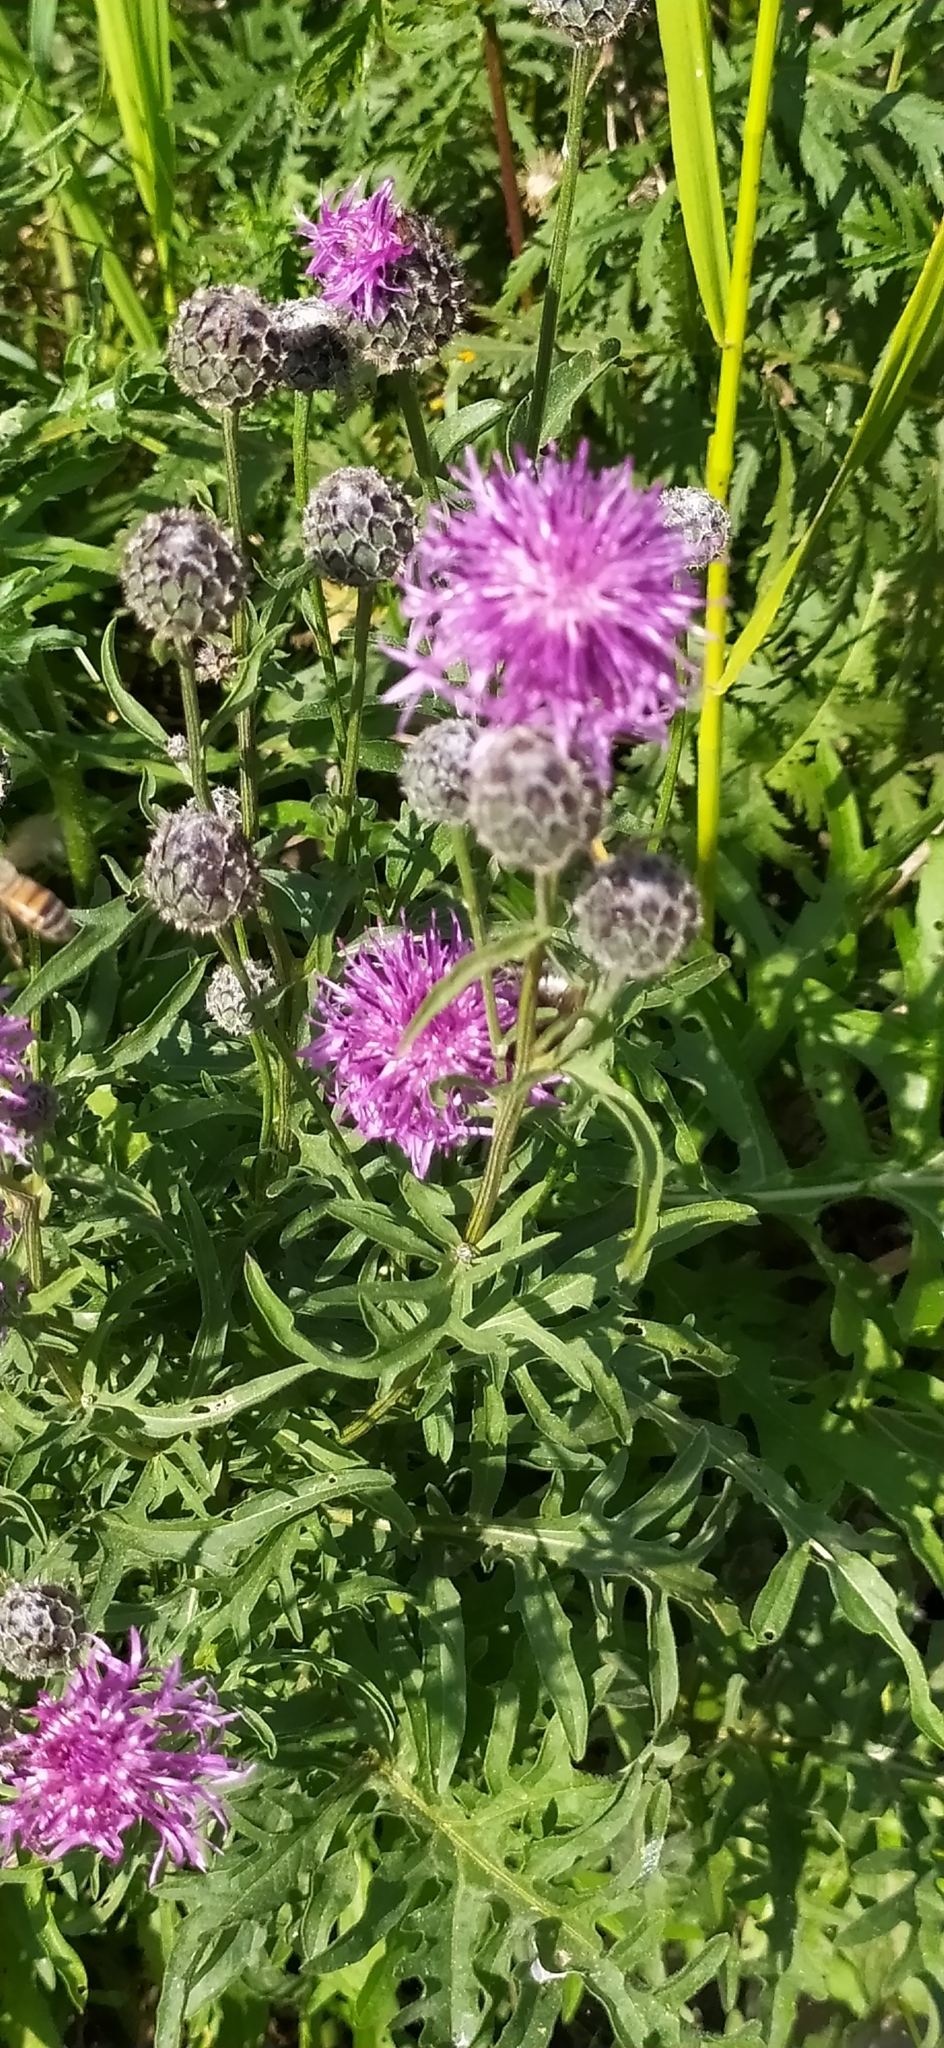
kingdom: Plantae
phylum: Tracheophyta
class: Magnoliopsida
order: Asterales
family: Asteraceae
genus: Centaurea
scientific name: Centaurea scabiosa
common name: Greater knapweed
